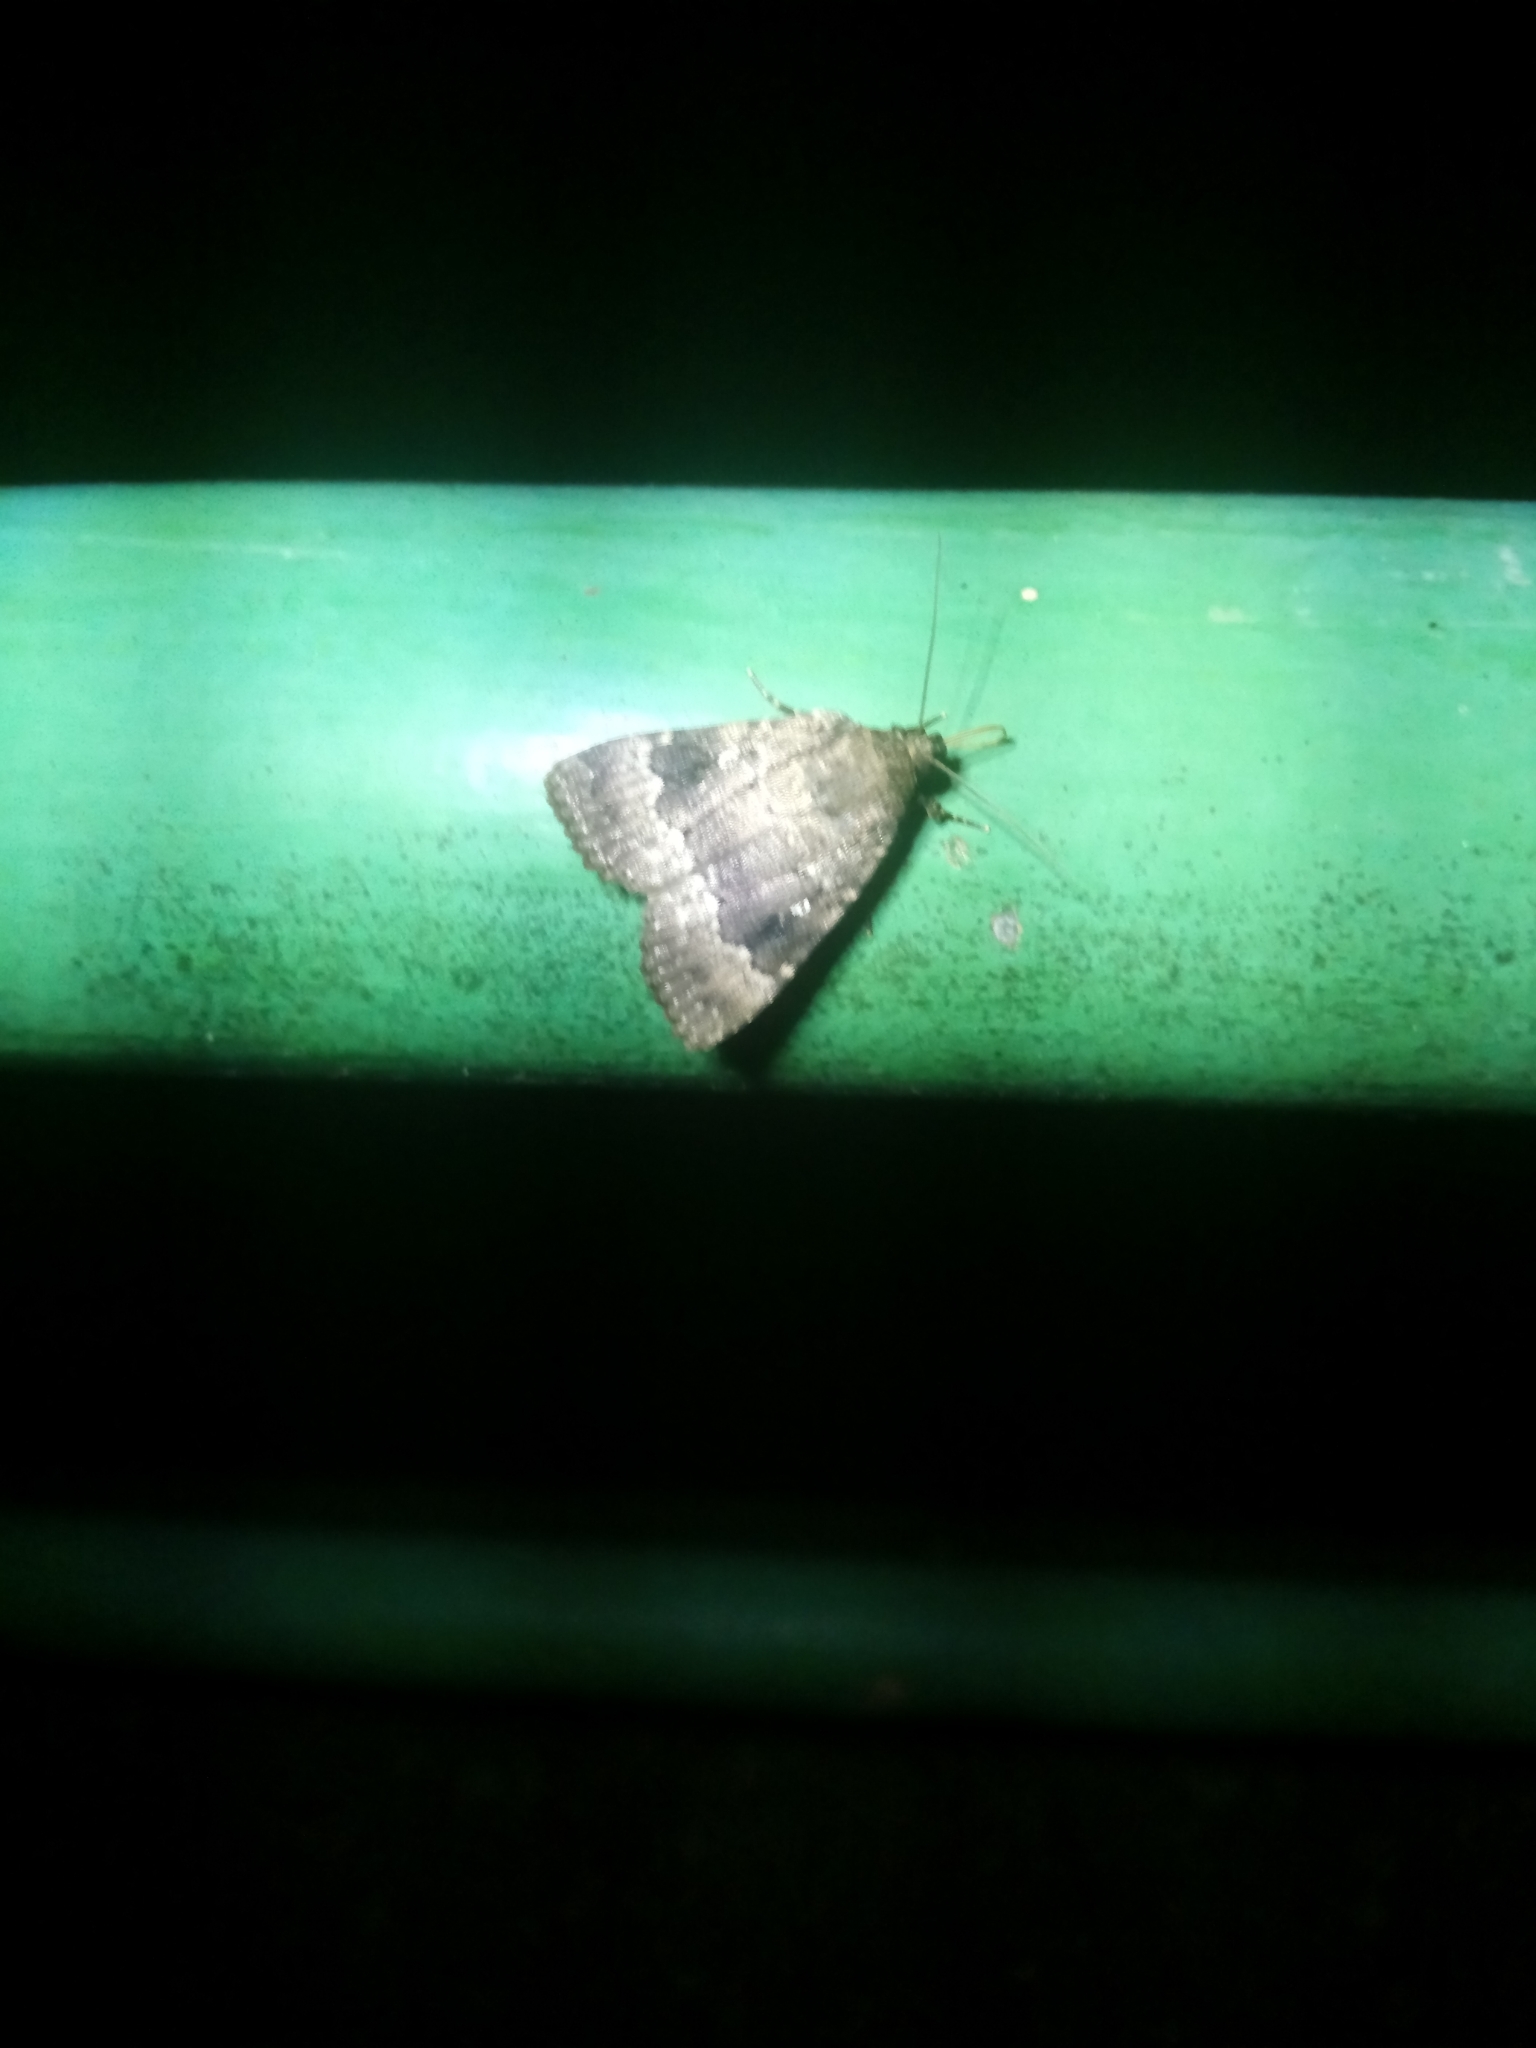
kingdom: Animalia
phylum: Arthropoda
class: Insecta
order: Lepidoptera
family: Noctuidae
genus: Amphipyra
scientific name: Amphipyra pyramidea
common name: Copper underwing
